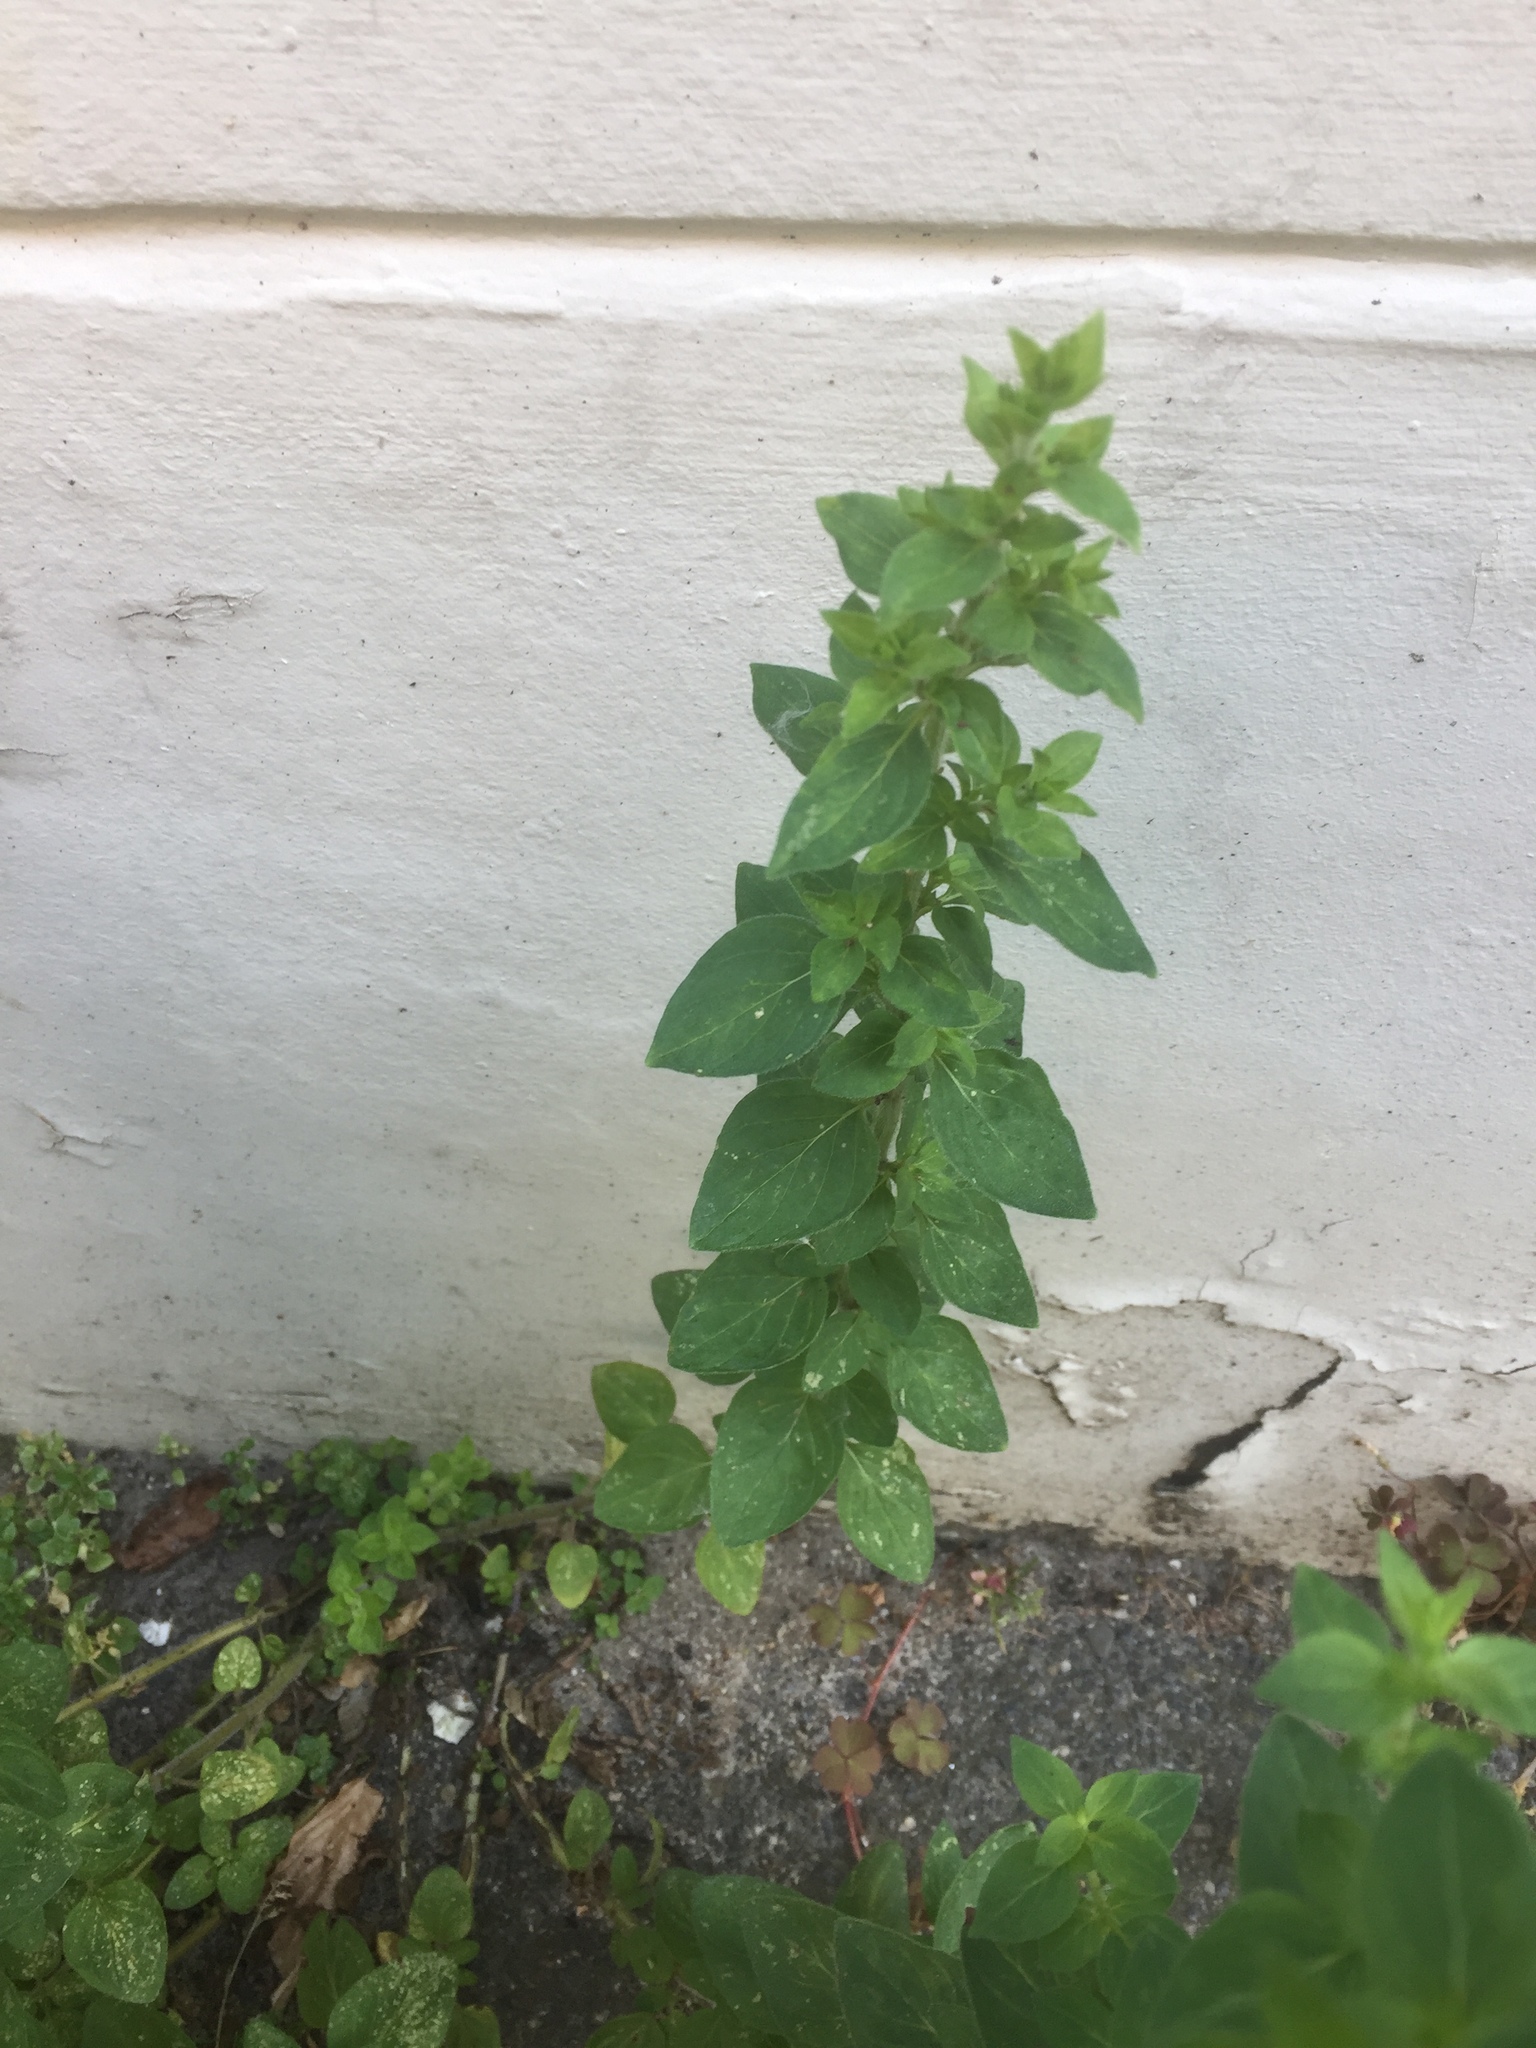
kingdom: Plantae
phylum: Tracheophyta
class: Magnoliopsida
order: Lamiales
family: Lamiaceae
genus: Ocimum
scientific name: Ocimum basilicum
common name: Sweet basil
